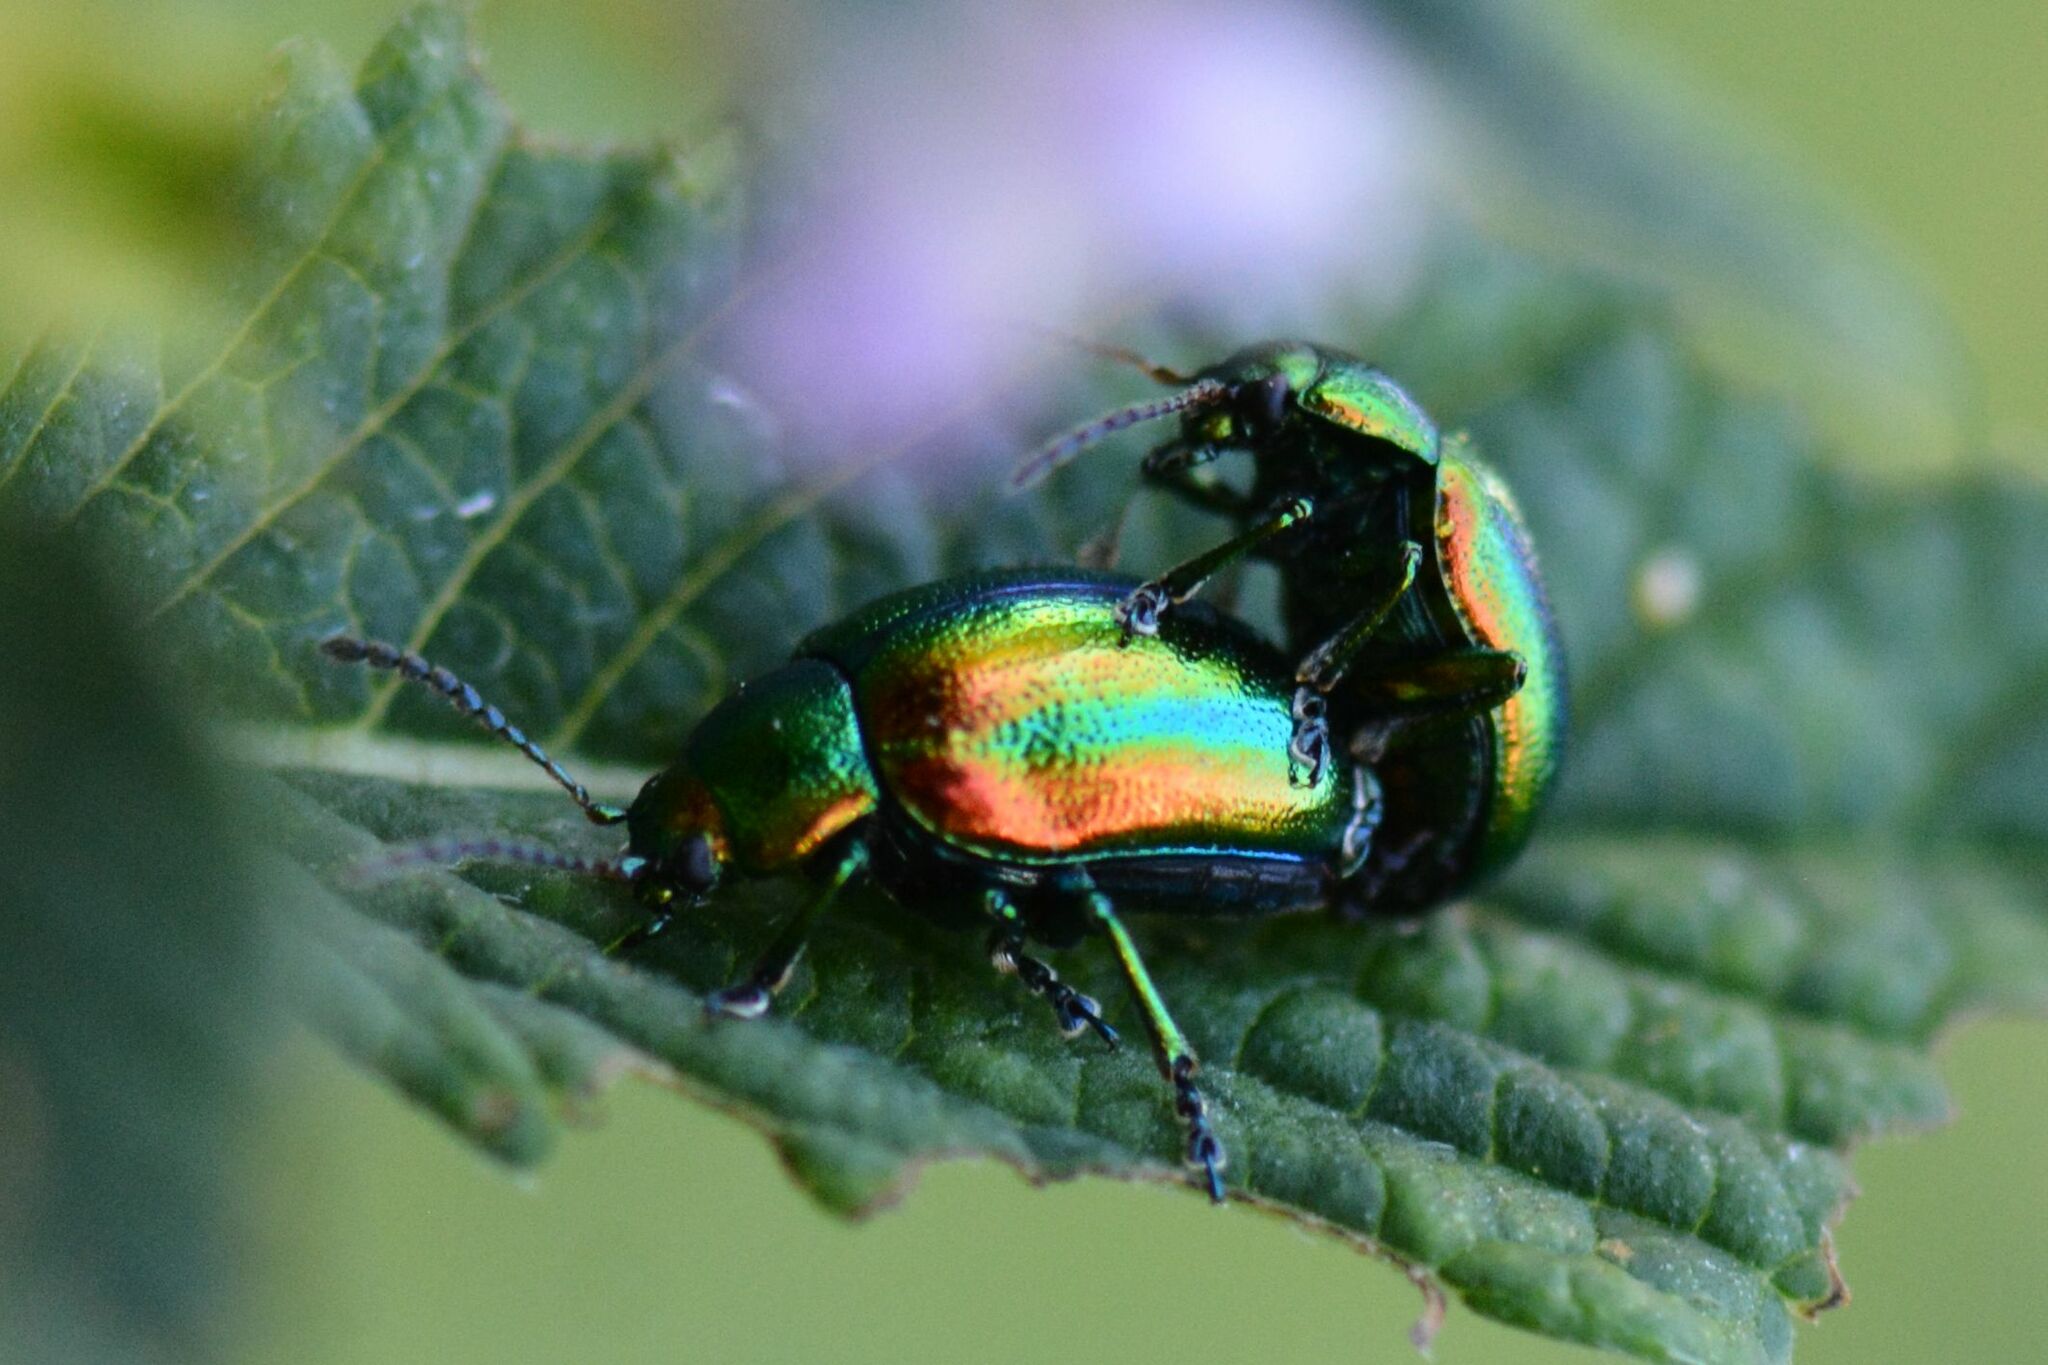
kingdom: Animalia
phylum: Arthropoda
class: Insecta
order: Coleoptera
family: Chrysomelidae
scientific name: Chrysomelidae
